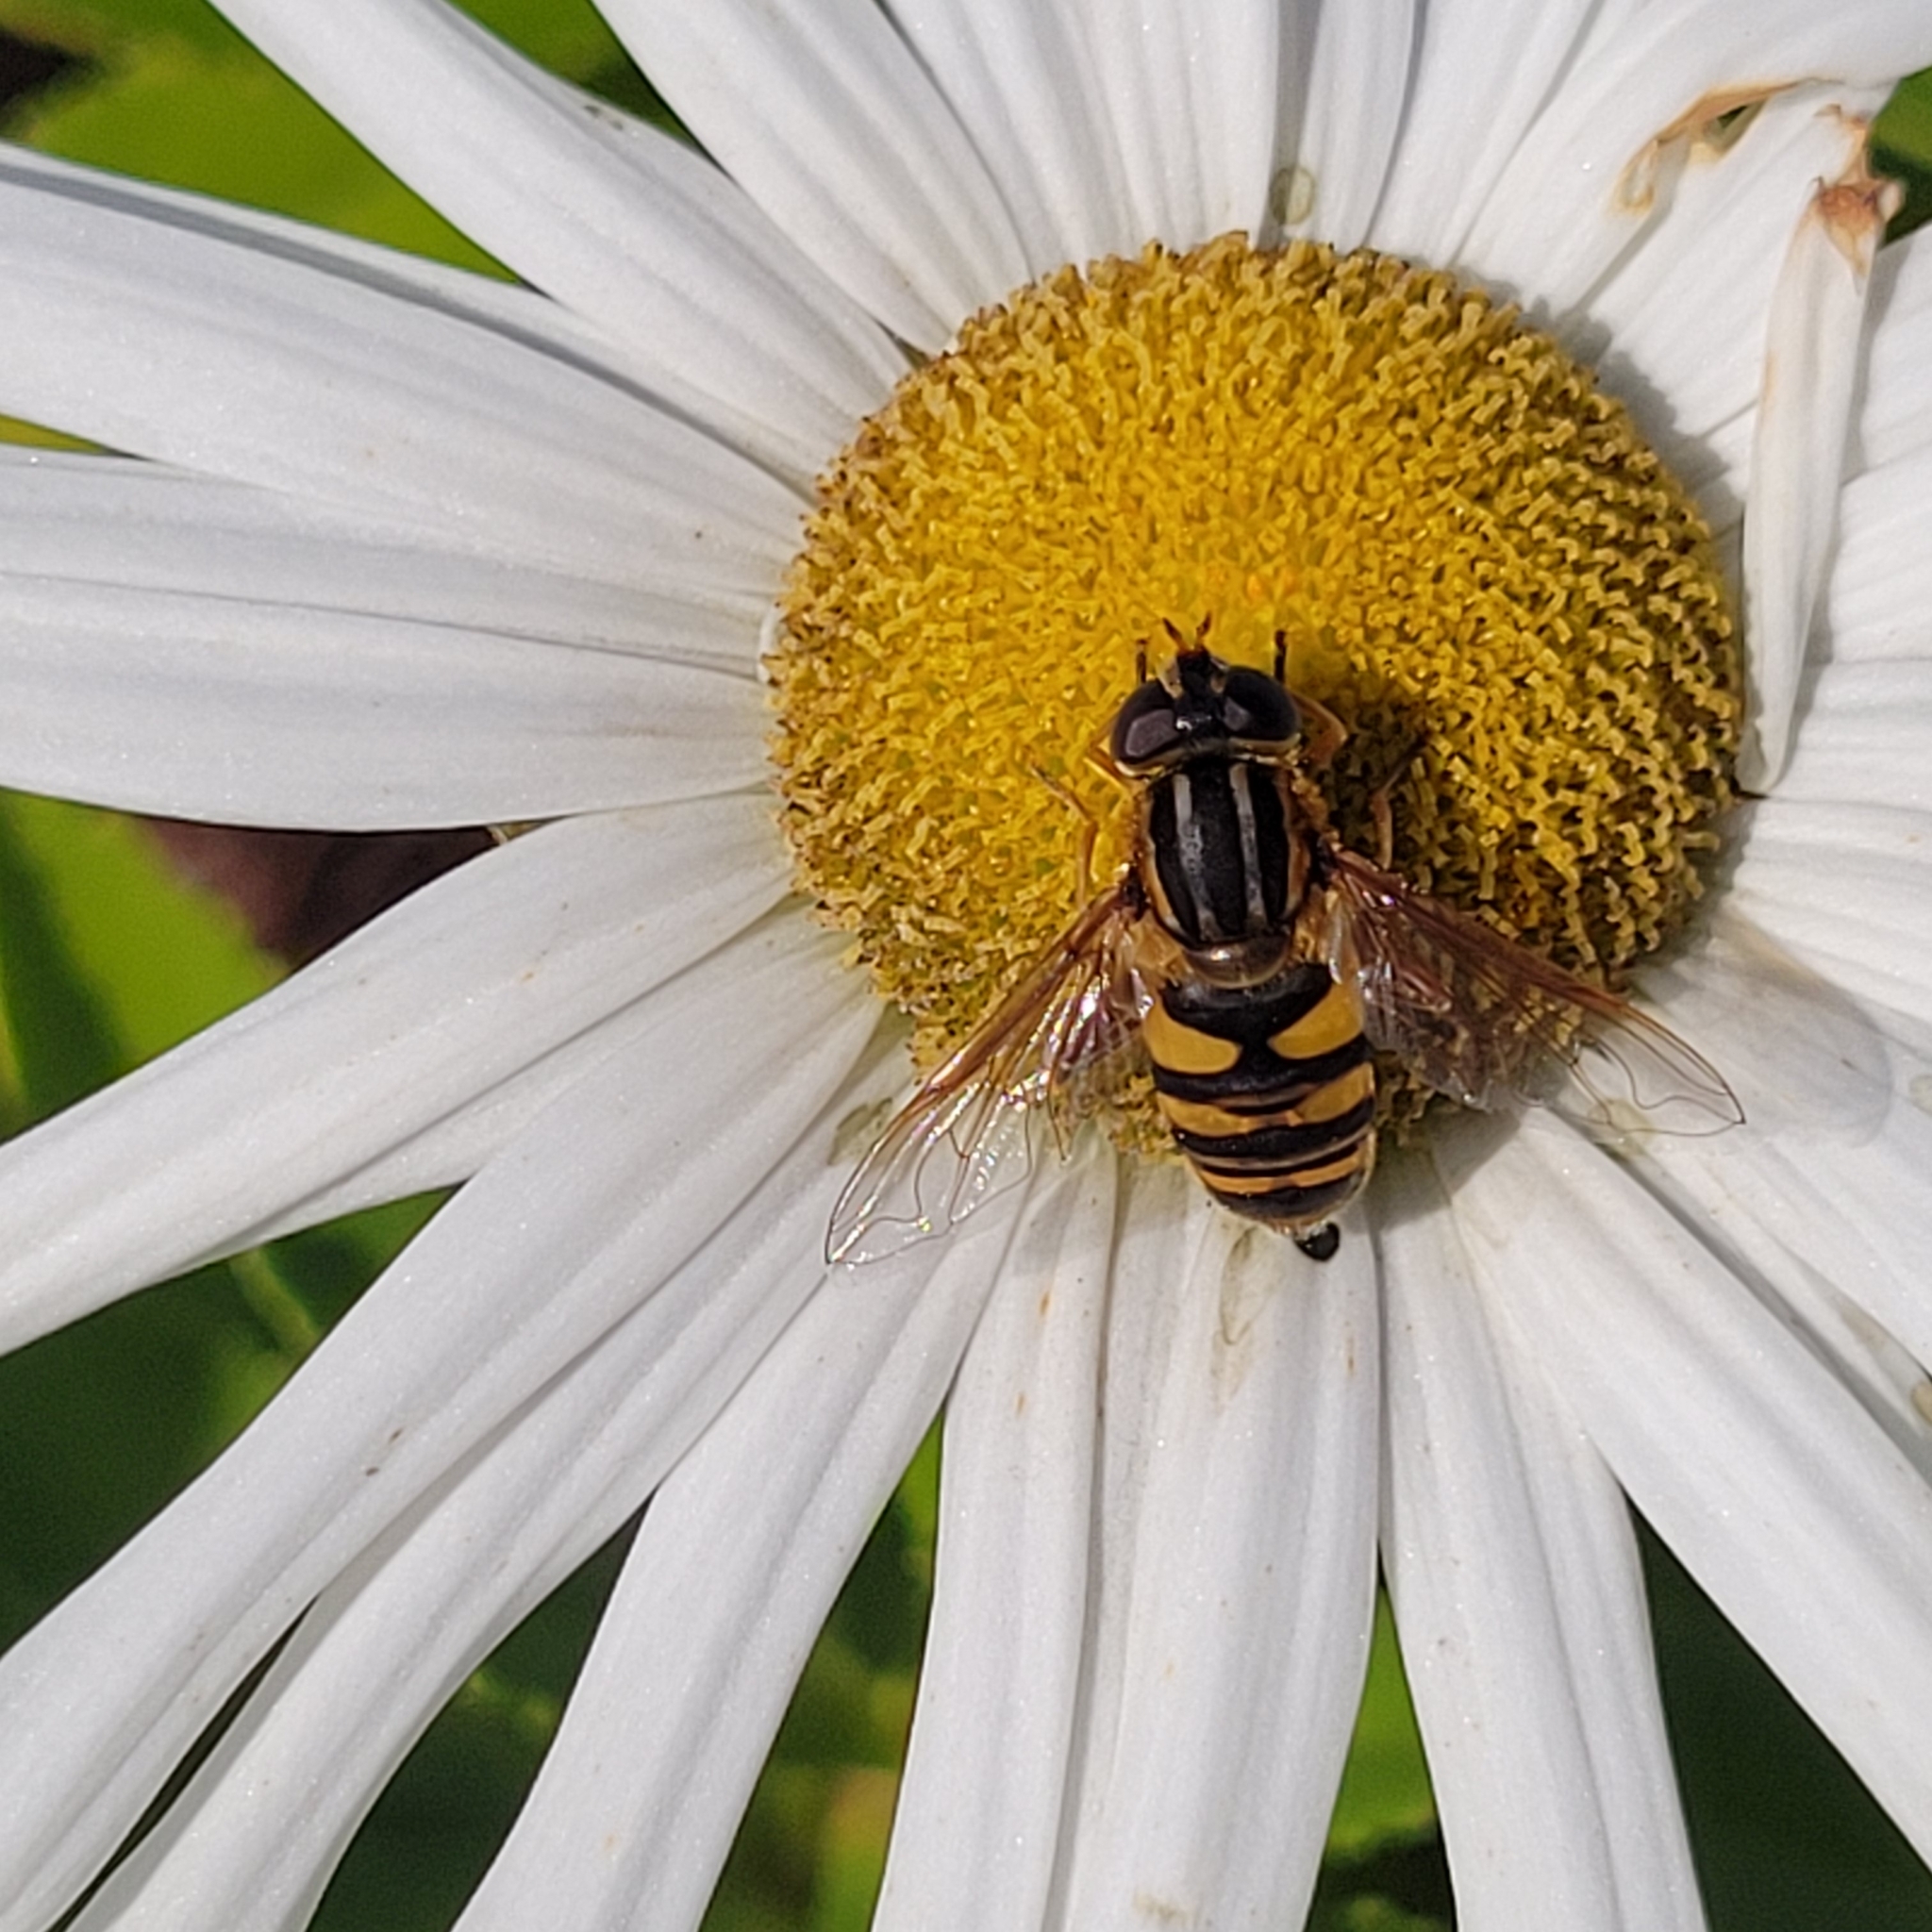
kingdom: Animalia
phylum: Arthropoda
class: Insecta
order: Diptera
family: Syrphidae
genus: Helophilus
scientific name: Helophilus fasciatus
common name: Narrow-headed marsh fly
